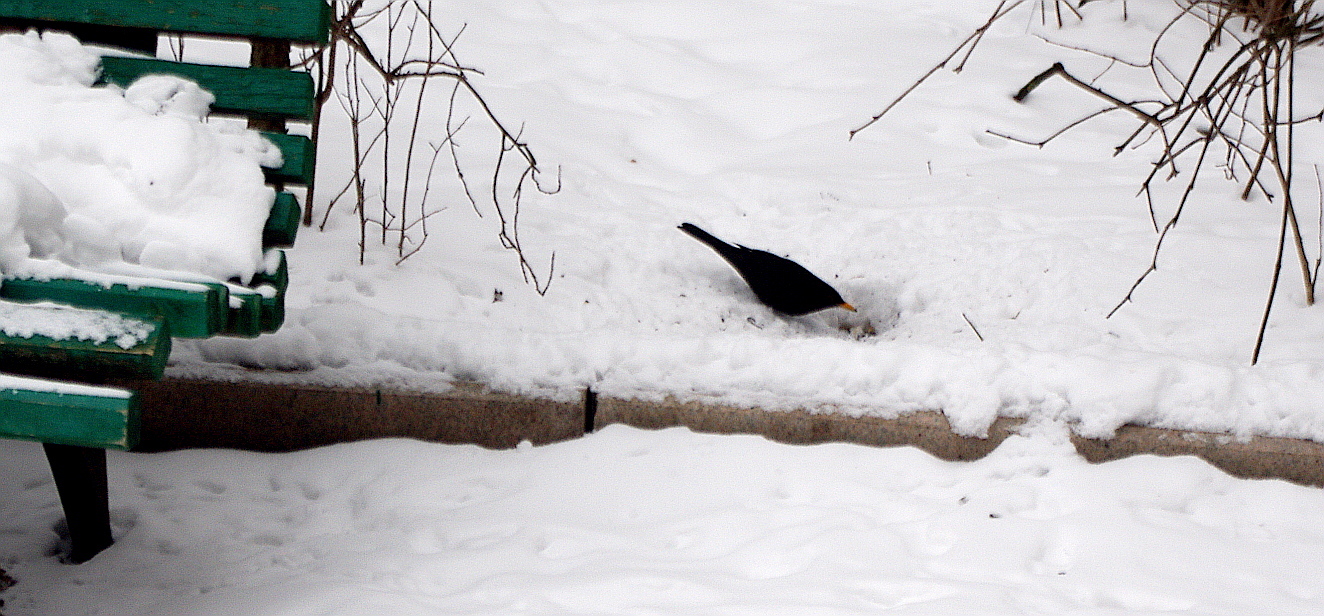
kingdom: Animalia
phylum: Chordata
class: Aves
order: Passeriformes
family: Turdidae
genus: Turdus
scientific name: Turdus merula
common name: Common blackbird
